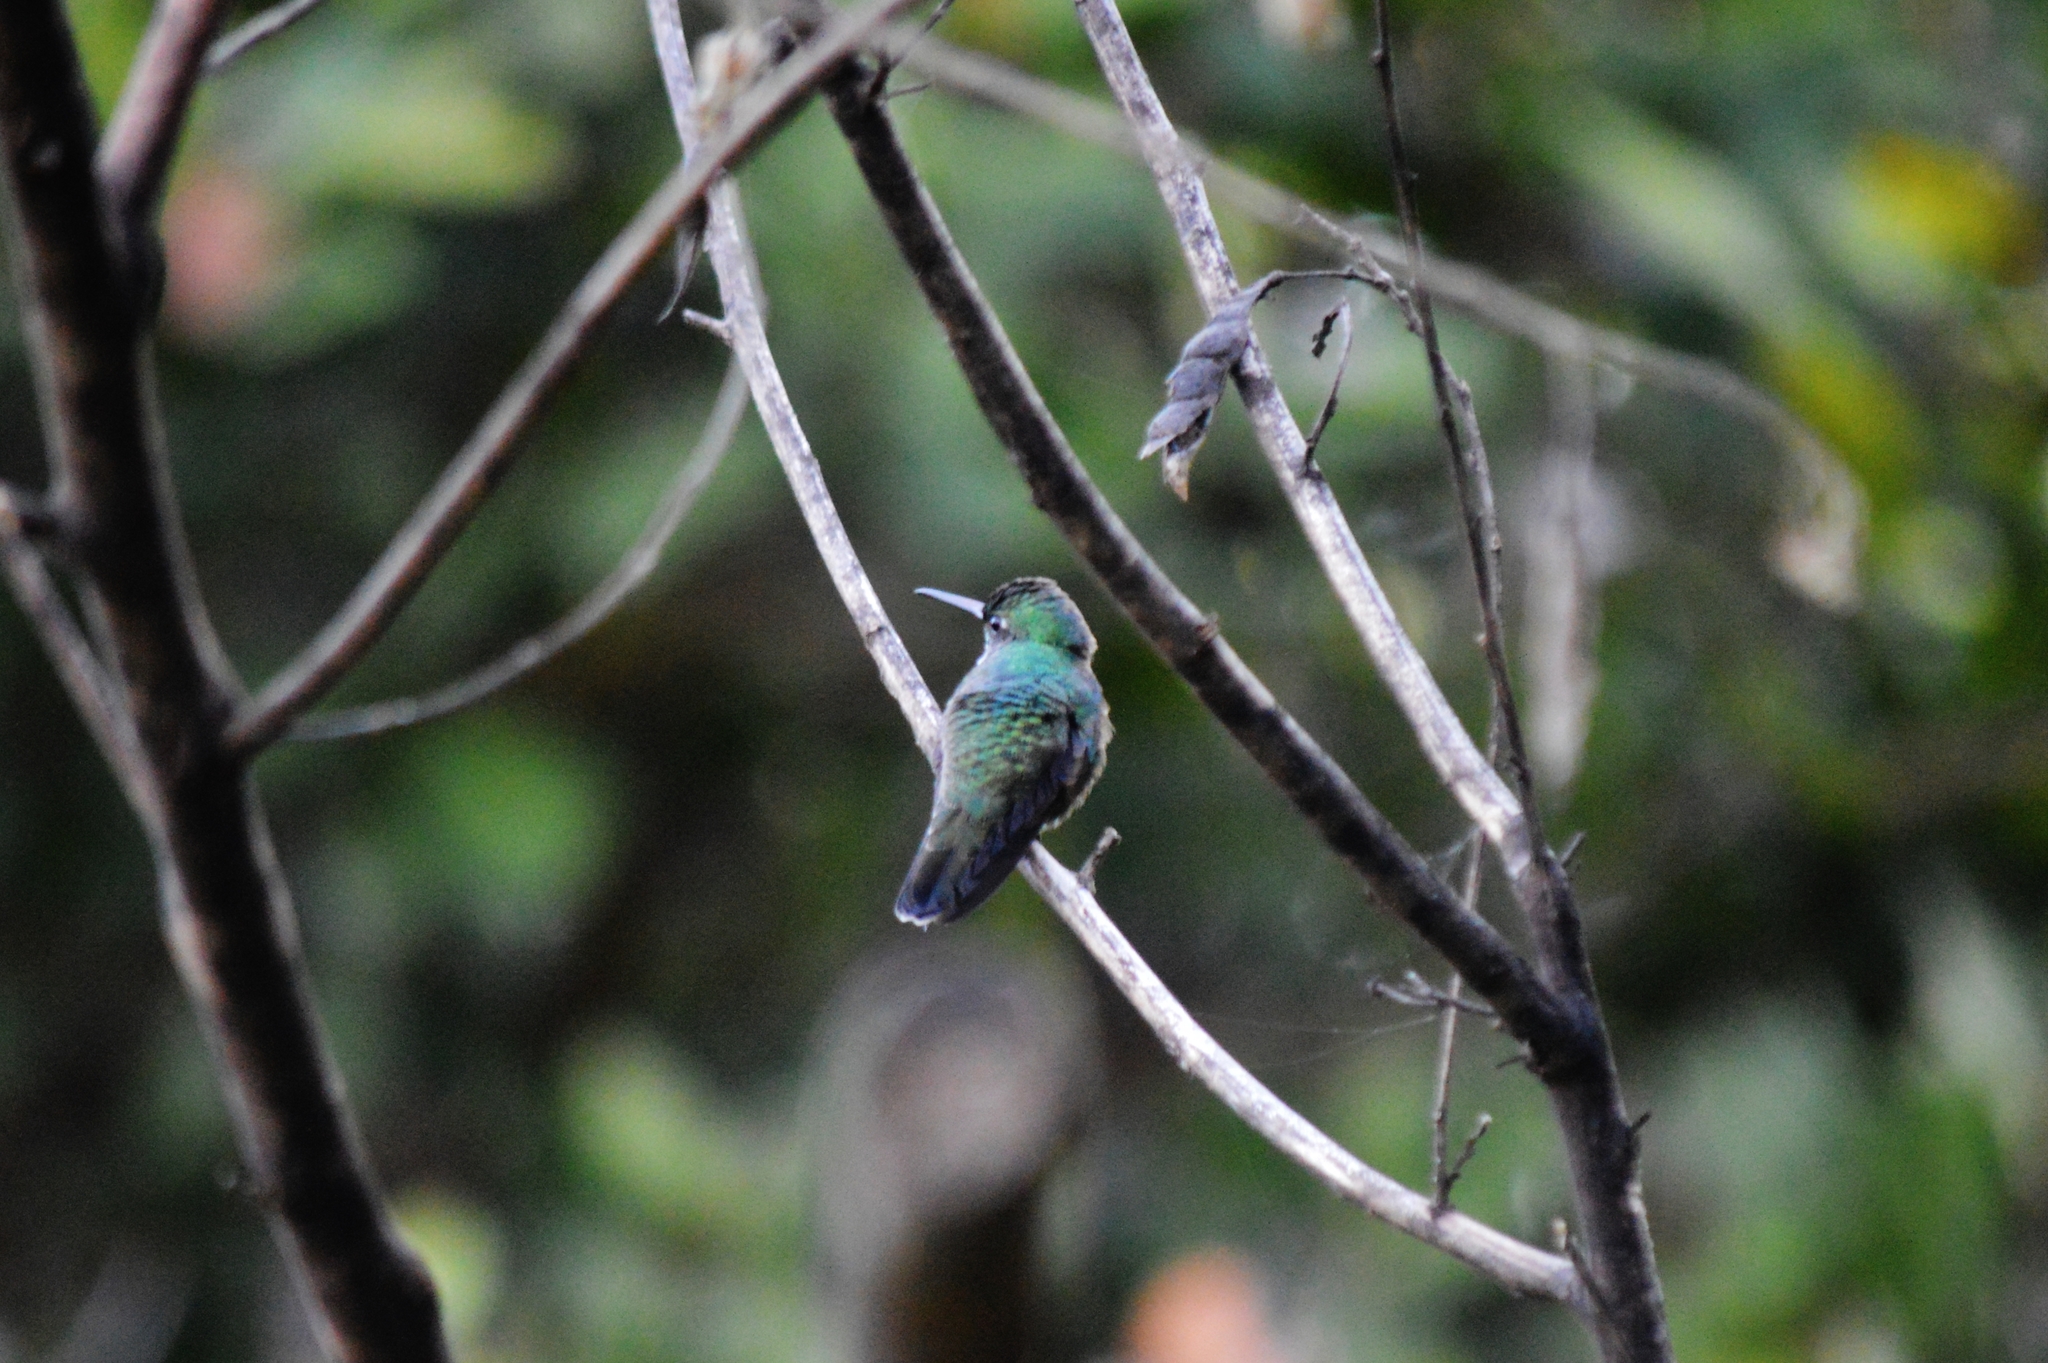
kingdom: Animalia
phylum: Chordata
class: Aves
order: Apodiformes
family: Trochilidae
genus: Chionomesa
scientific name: Chionomesa fimbriata
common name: Glittering-throated emerald
